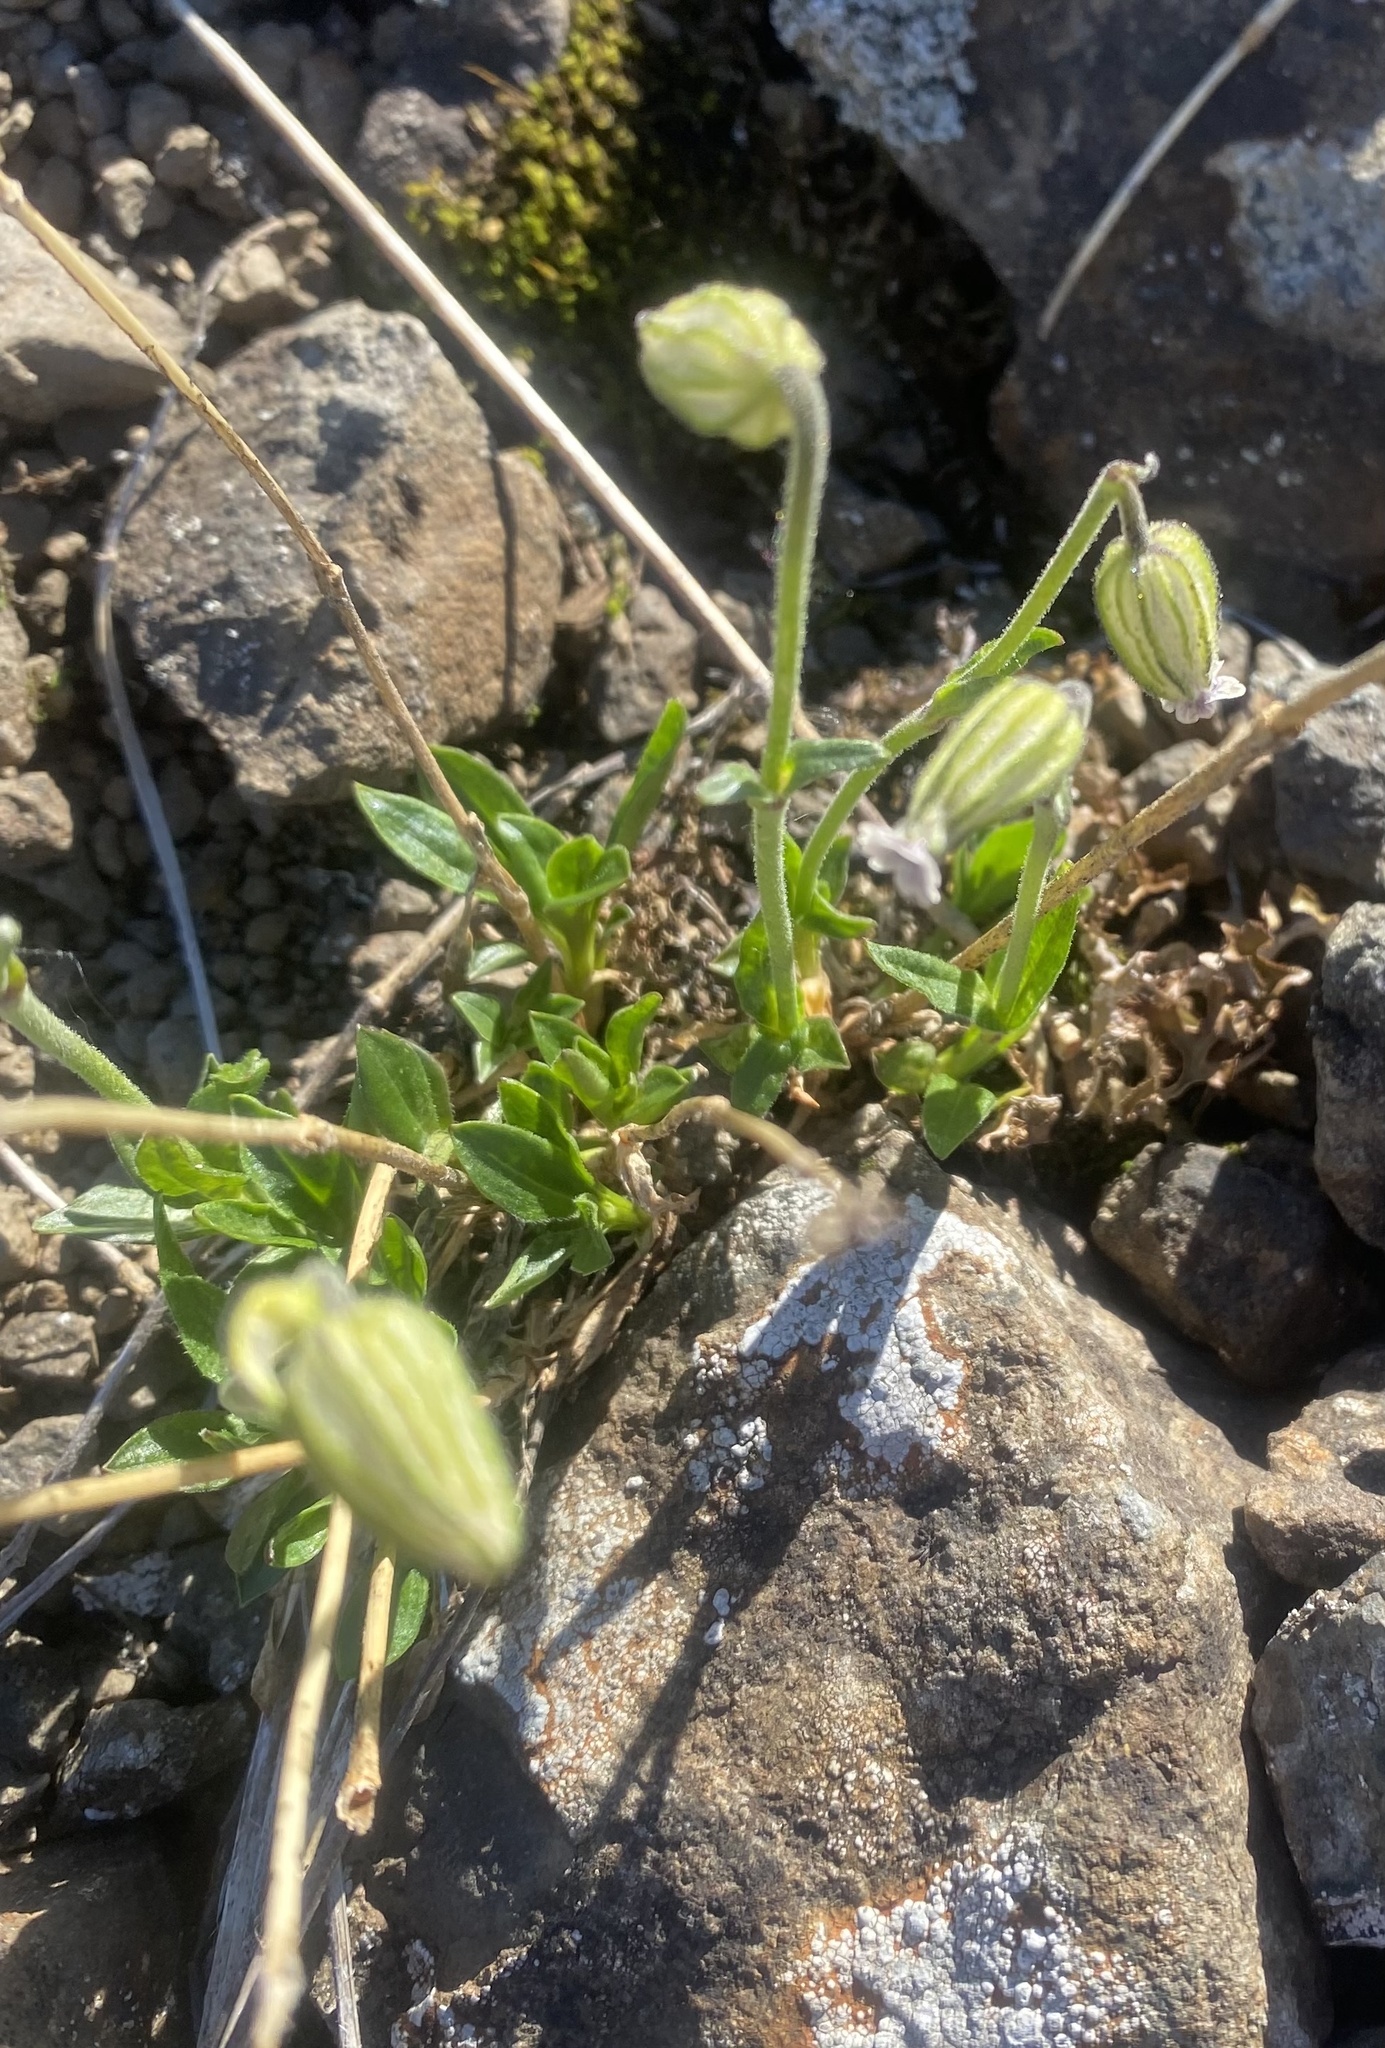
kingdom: Plantae
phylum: Tracheophyta
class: Magnoliopsida
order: Caryophyllales
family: Caryophyllaceae
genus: Silene
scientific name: Silene wahlbergella
